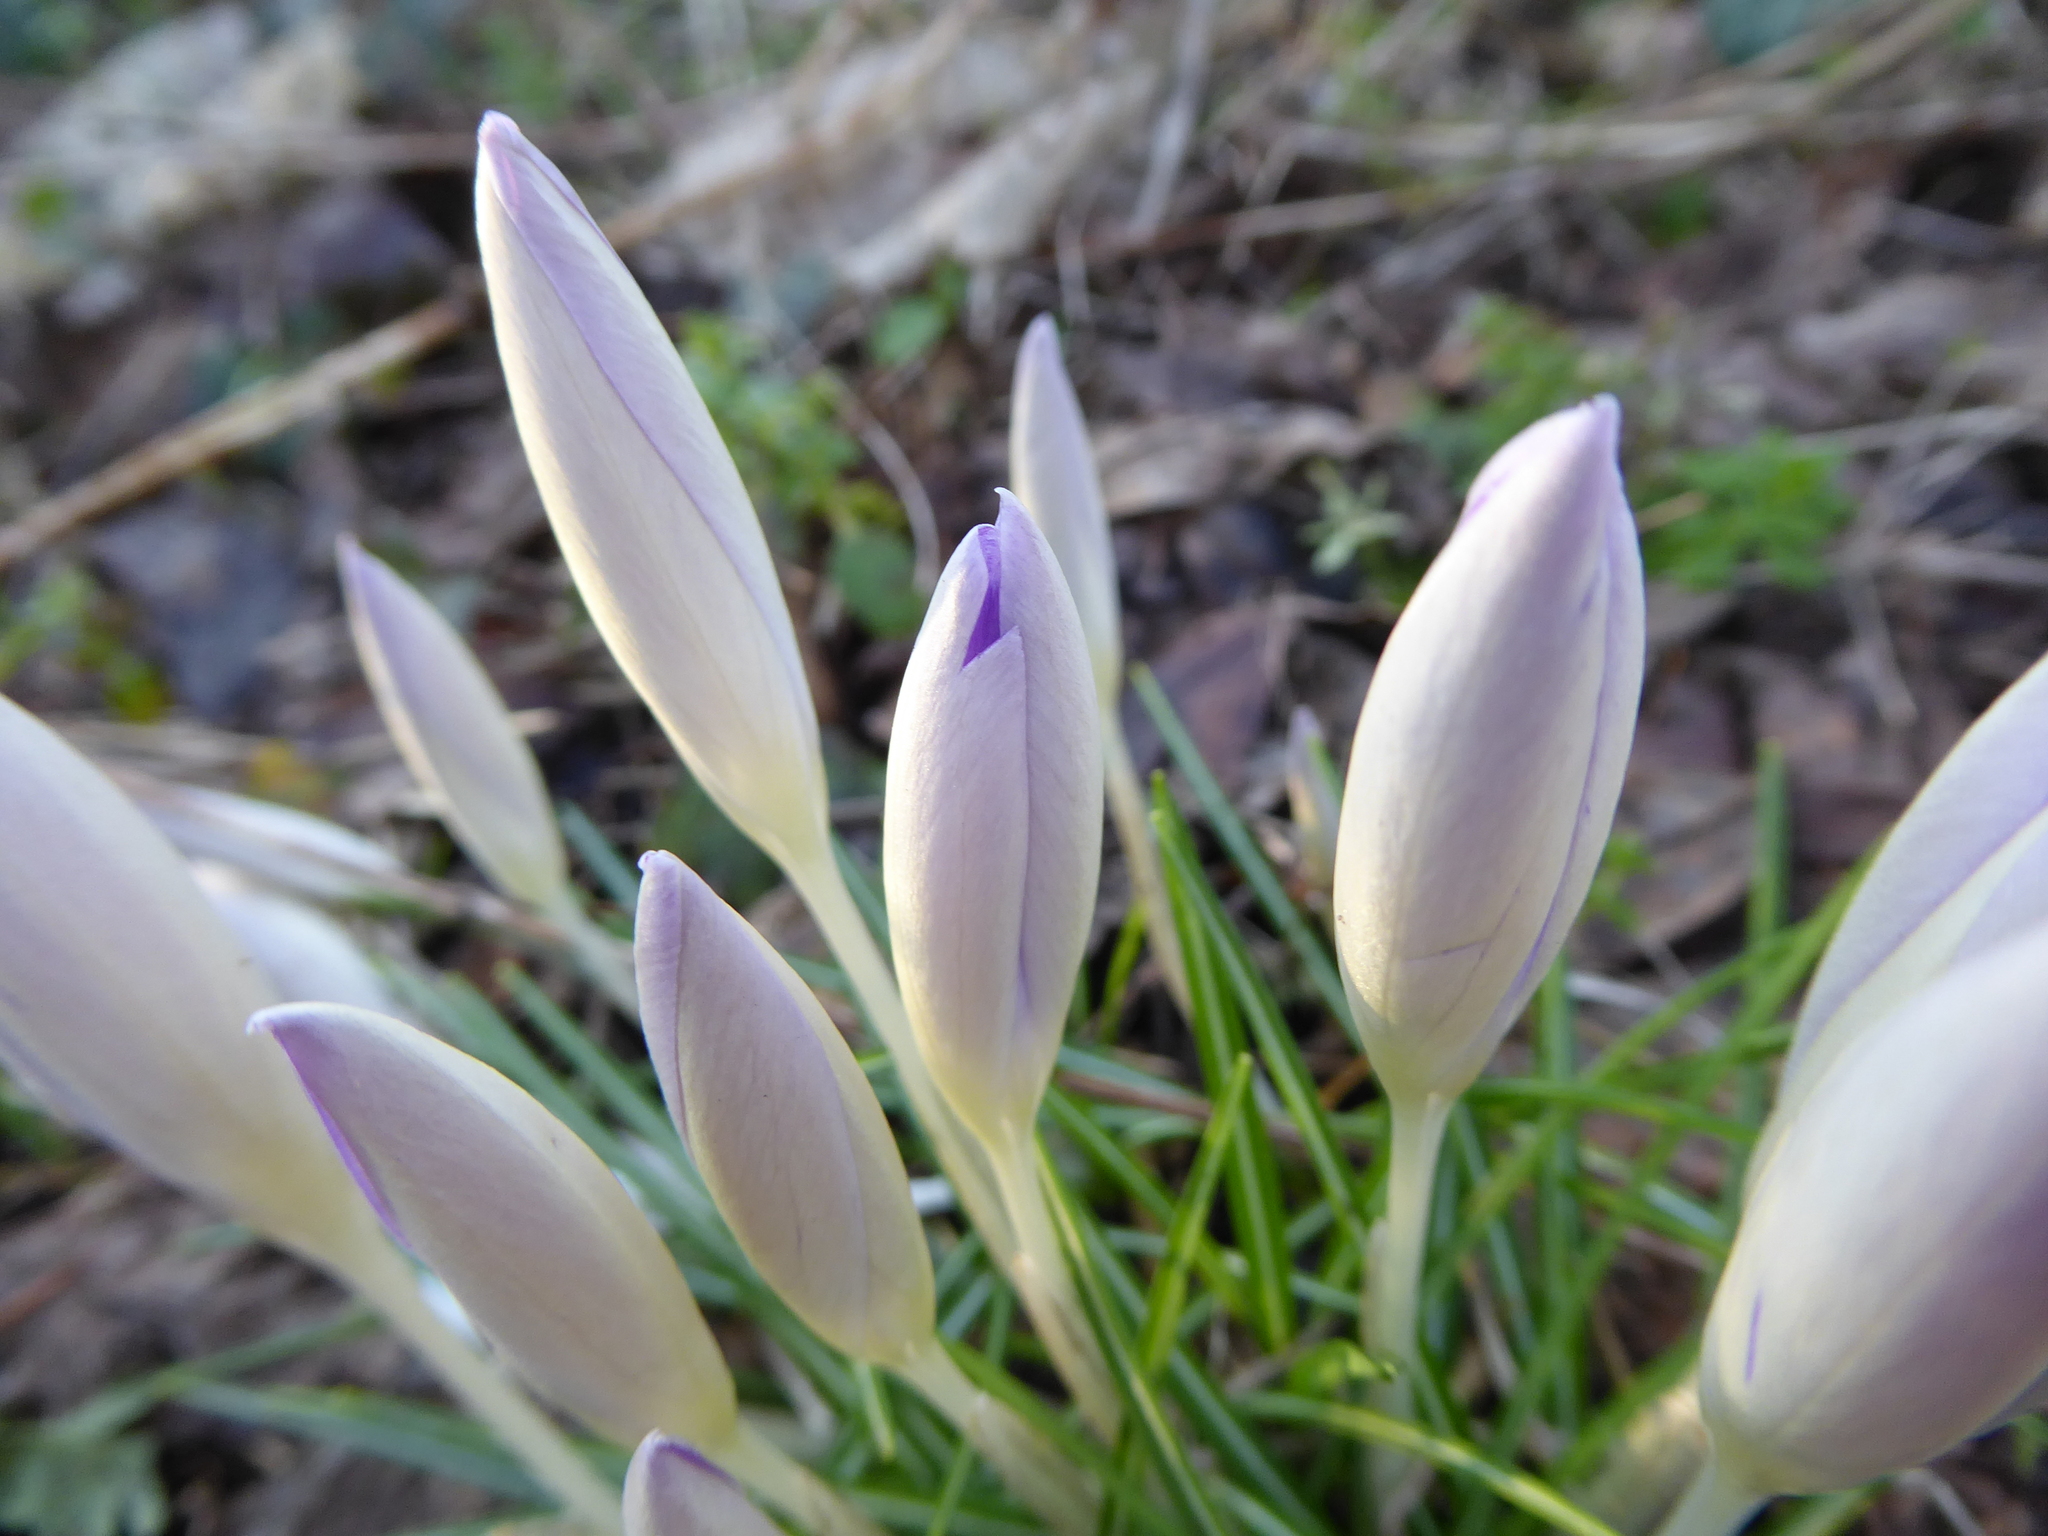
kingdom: Plantae
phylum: Tracheophyta
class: Liliopsida
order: Asparagales
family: Iridaceae
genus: Crocus
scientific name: Crocus tommasinianus
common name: Early crocus
